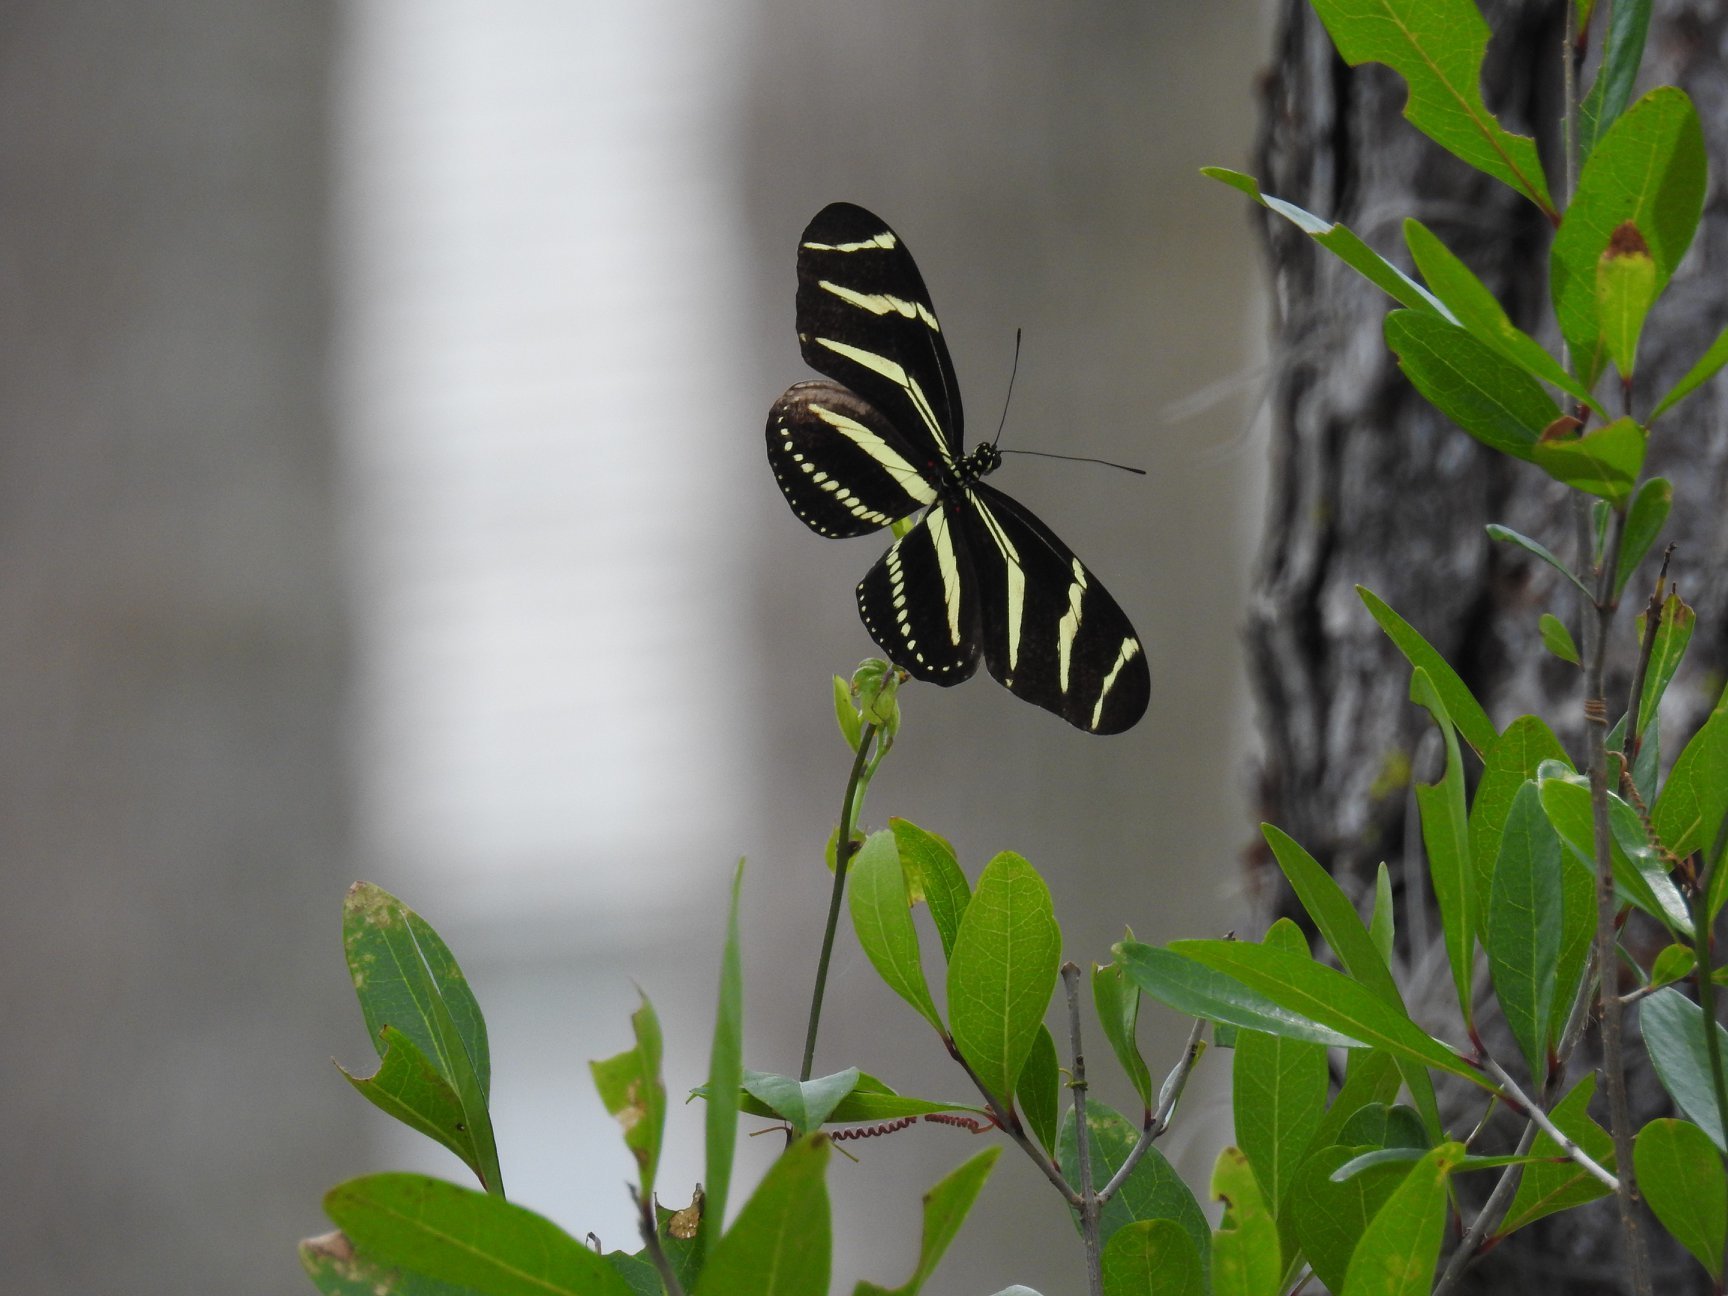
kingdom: Animalia
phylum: Arthropoda
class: Insecta
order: Lepidoptera
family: Nymphalidae
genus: Heliconius
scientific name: Heliconius charithonia
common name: Zebra long wing
